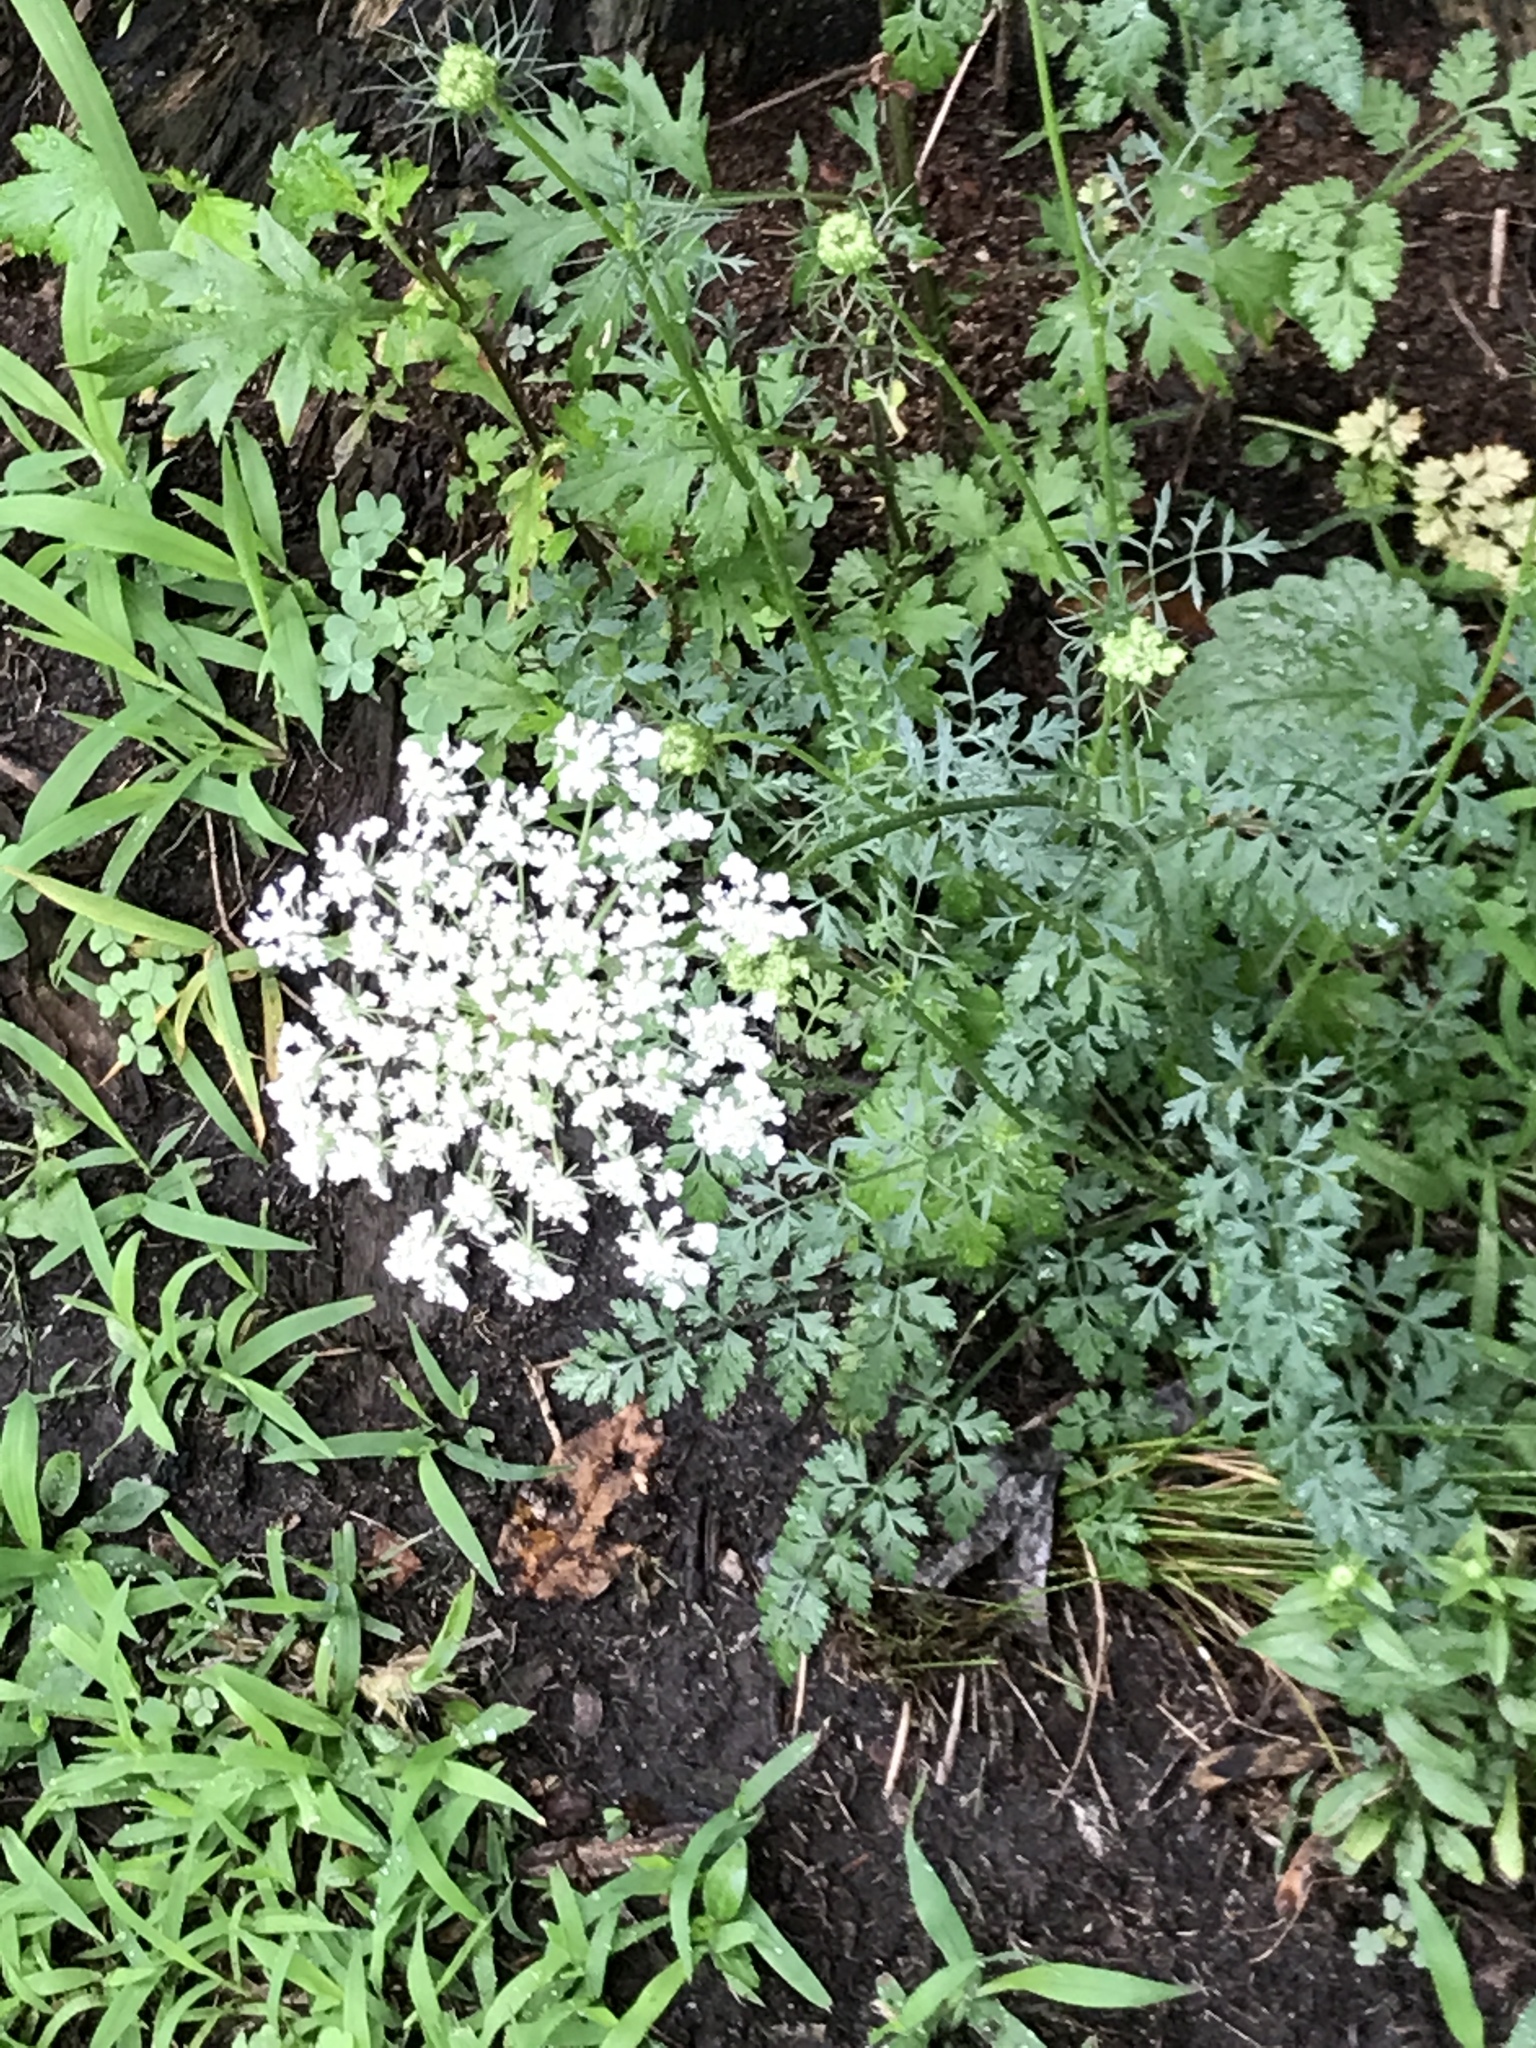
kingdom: Plantae
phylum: Tracheophyta
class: Magnoliopsida
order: Apiales
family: Apiaceae
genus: Daucus
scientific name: Daucus carota
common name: Wild carrot
